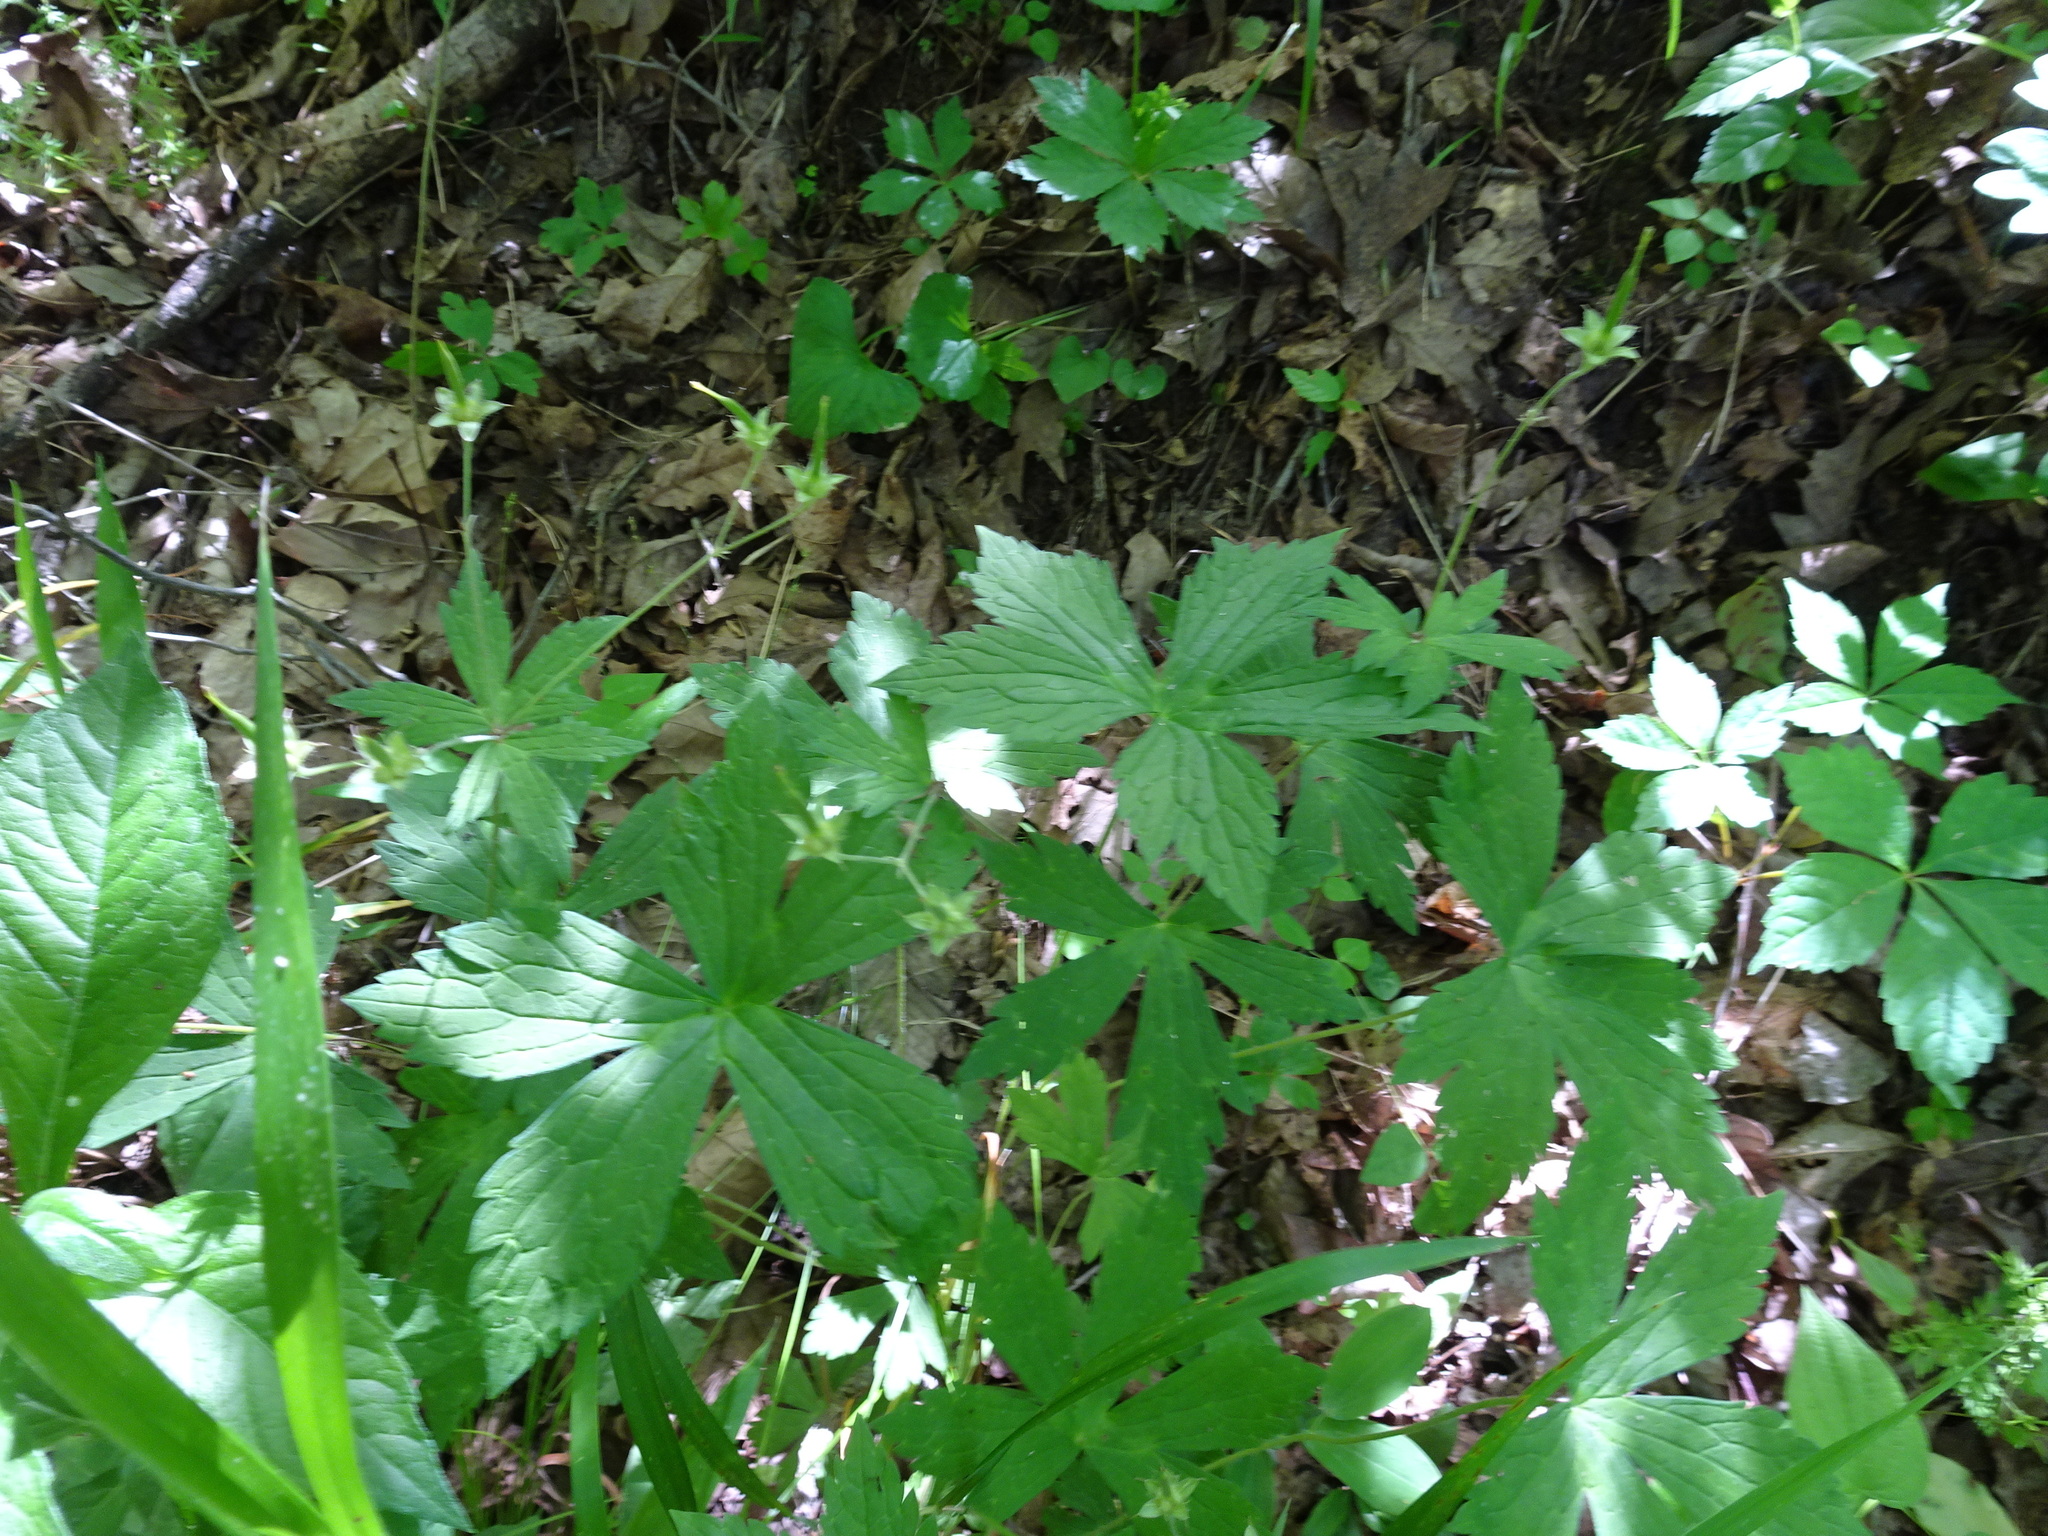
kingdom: Plantae
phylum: Tracheophyta
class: Magnoliopsida
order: Geraniales
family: Geraniaceae
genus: Geranium
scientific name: Geranium maculatum
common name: Spotted geranium
